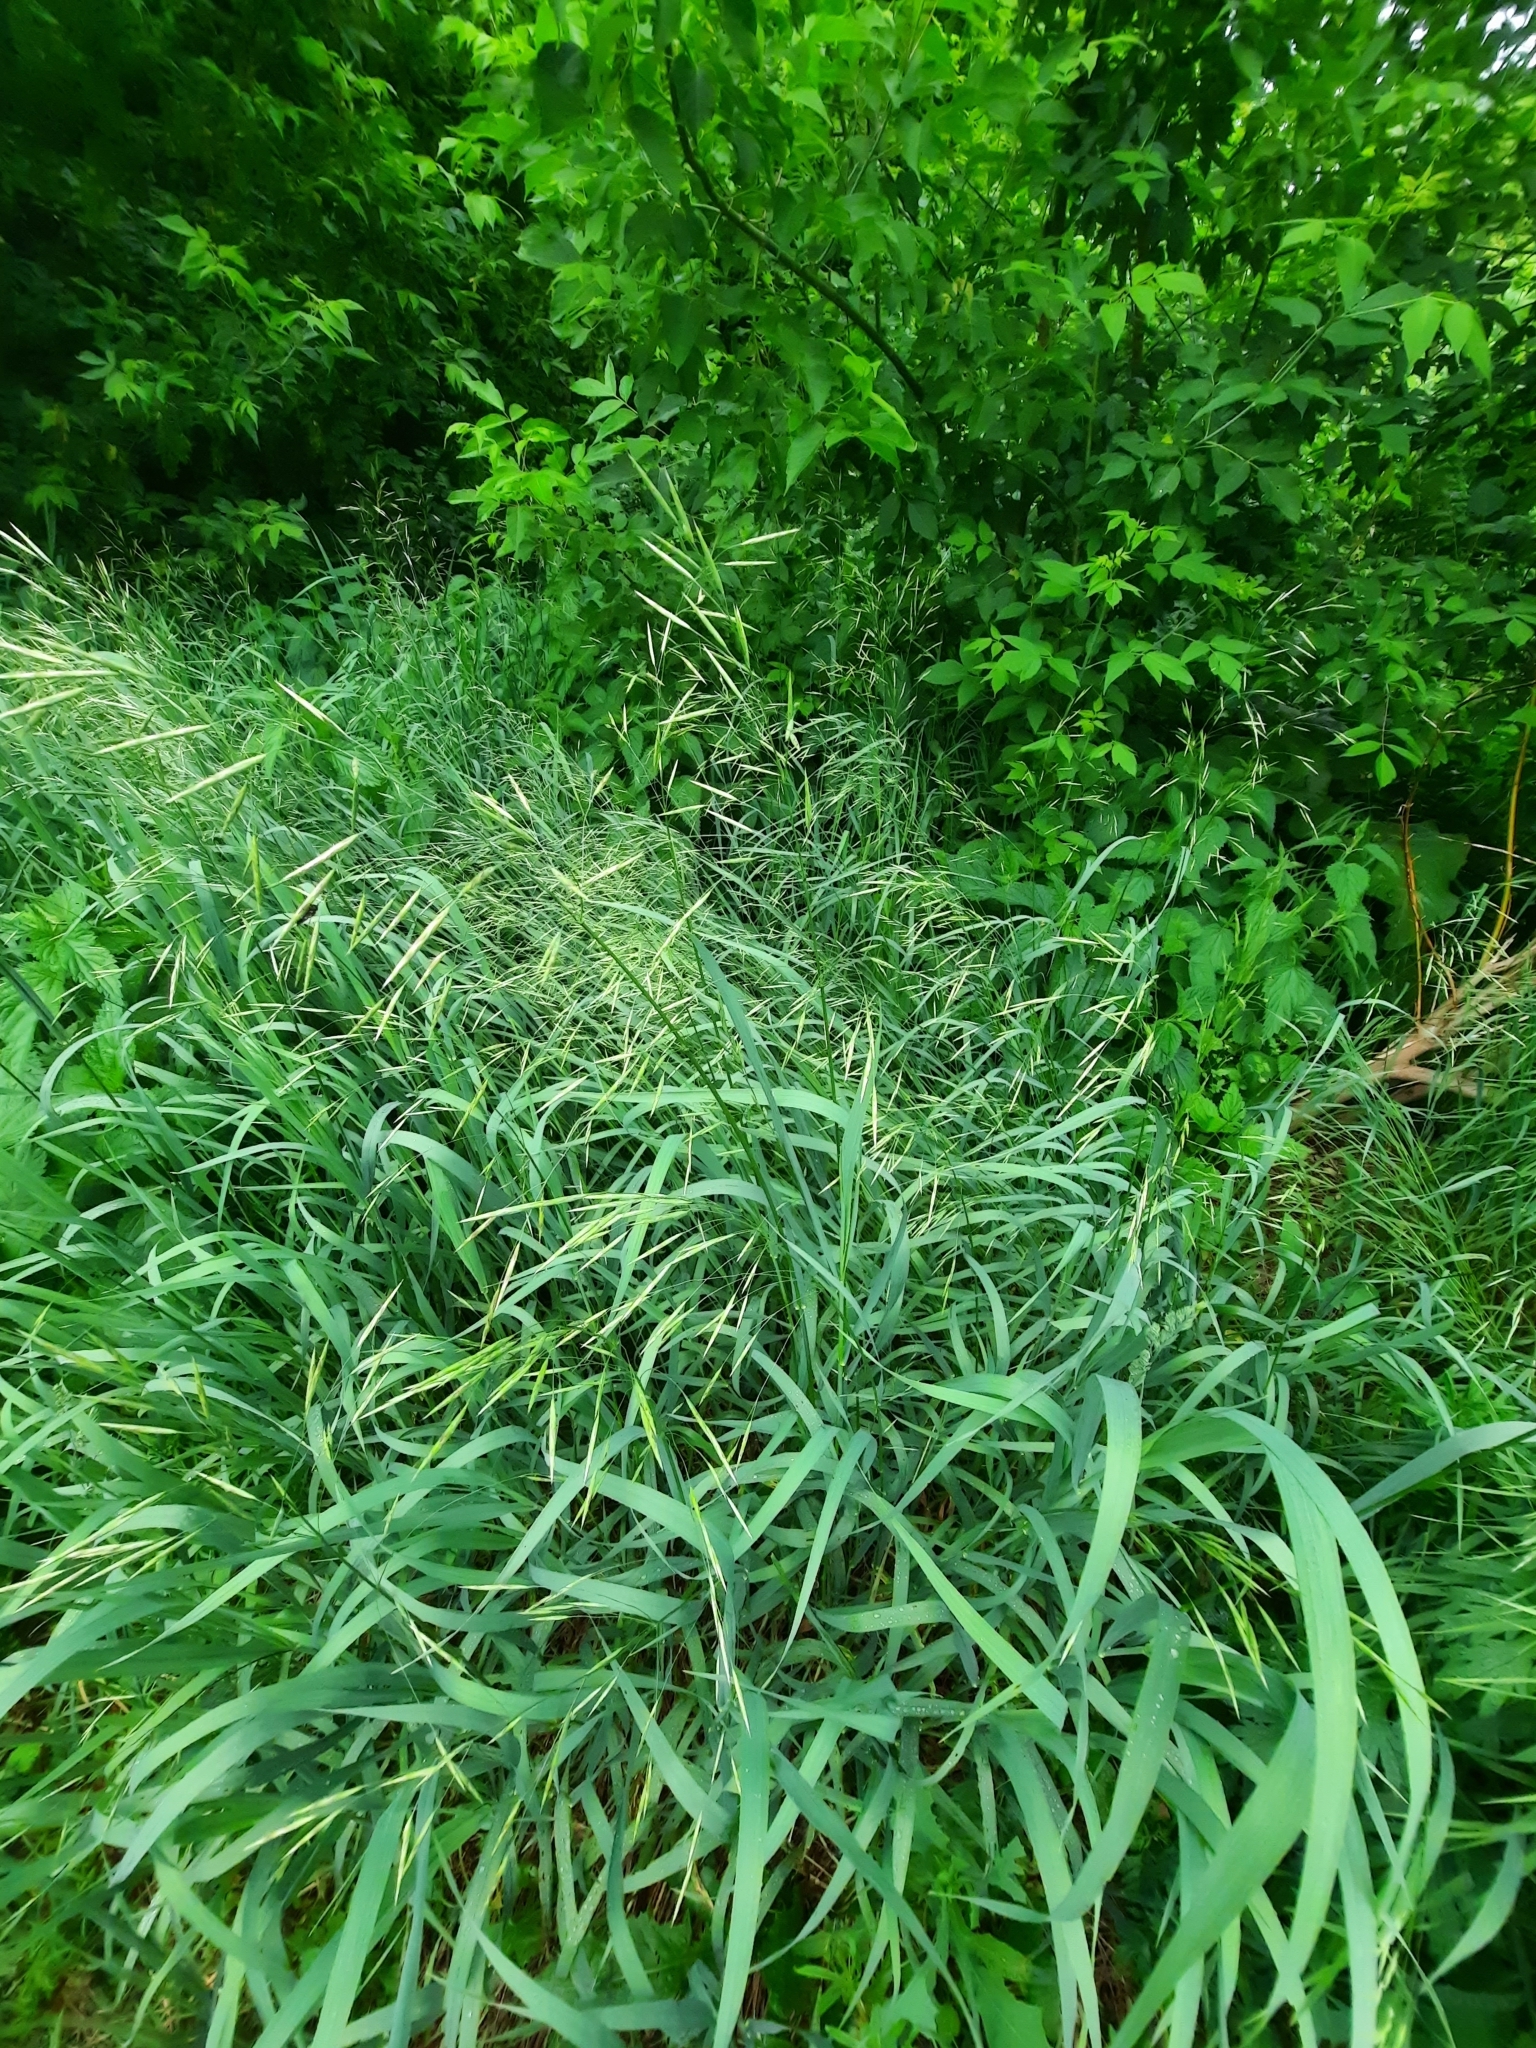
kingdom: Plantae
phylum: Tracheophyta
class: Liliopsida
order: Poales
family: Poaceae
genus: Bromus
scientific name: Bromus inermis
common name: Smooth brome
